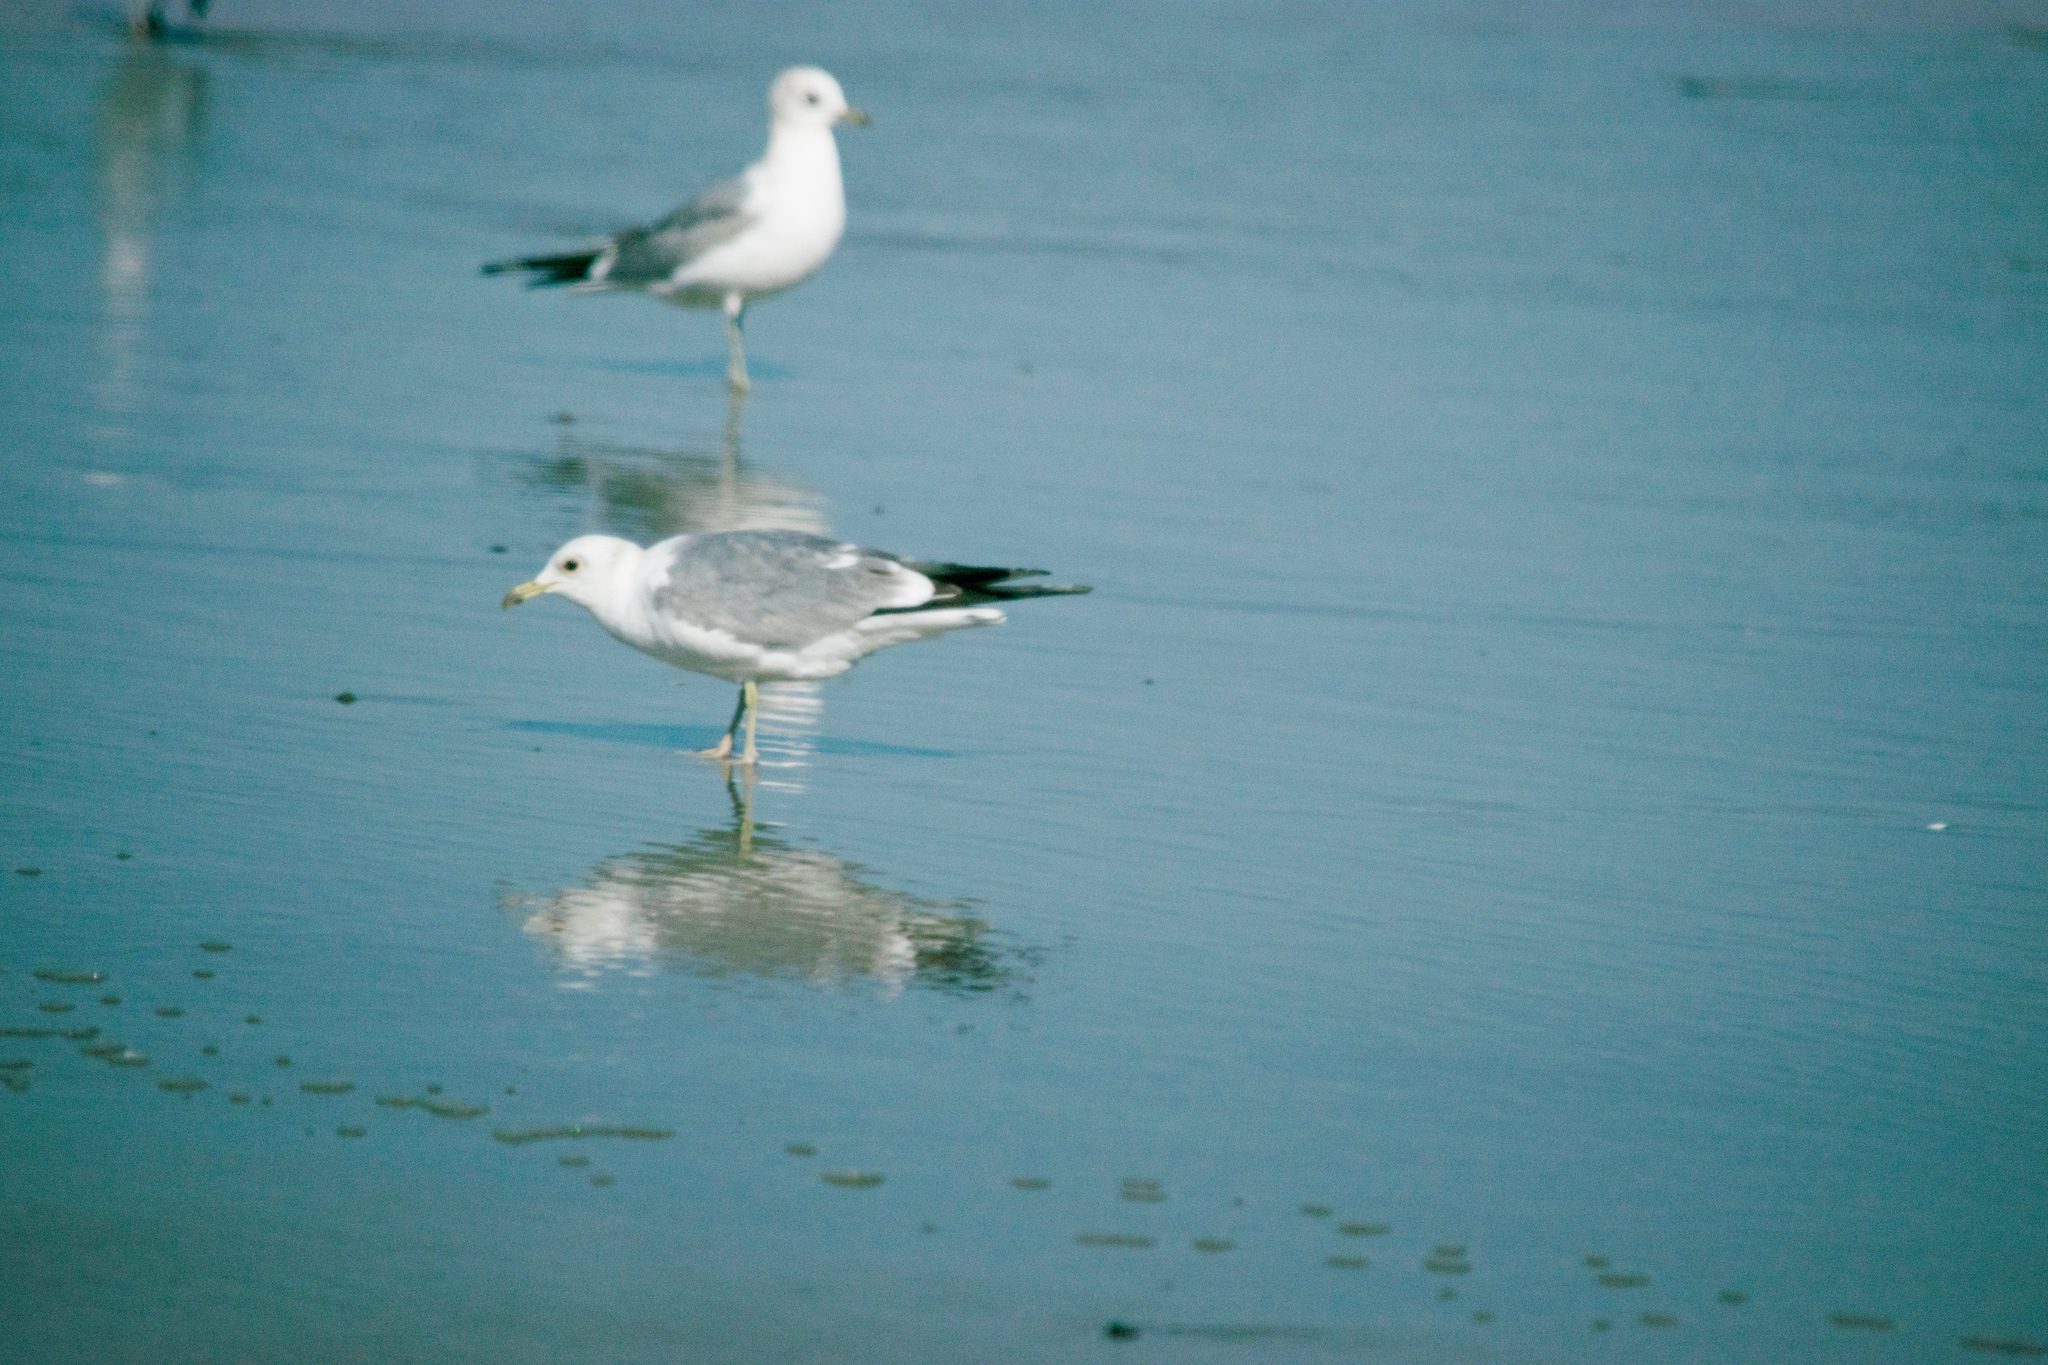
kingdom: Animalia
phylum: Chordata
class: Aves
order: Charadriiformes
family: Laridae
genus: Larus
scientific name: Larus californicus
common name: California gull
